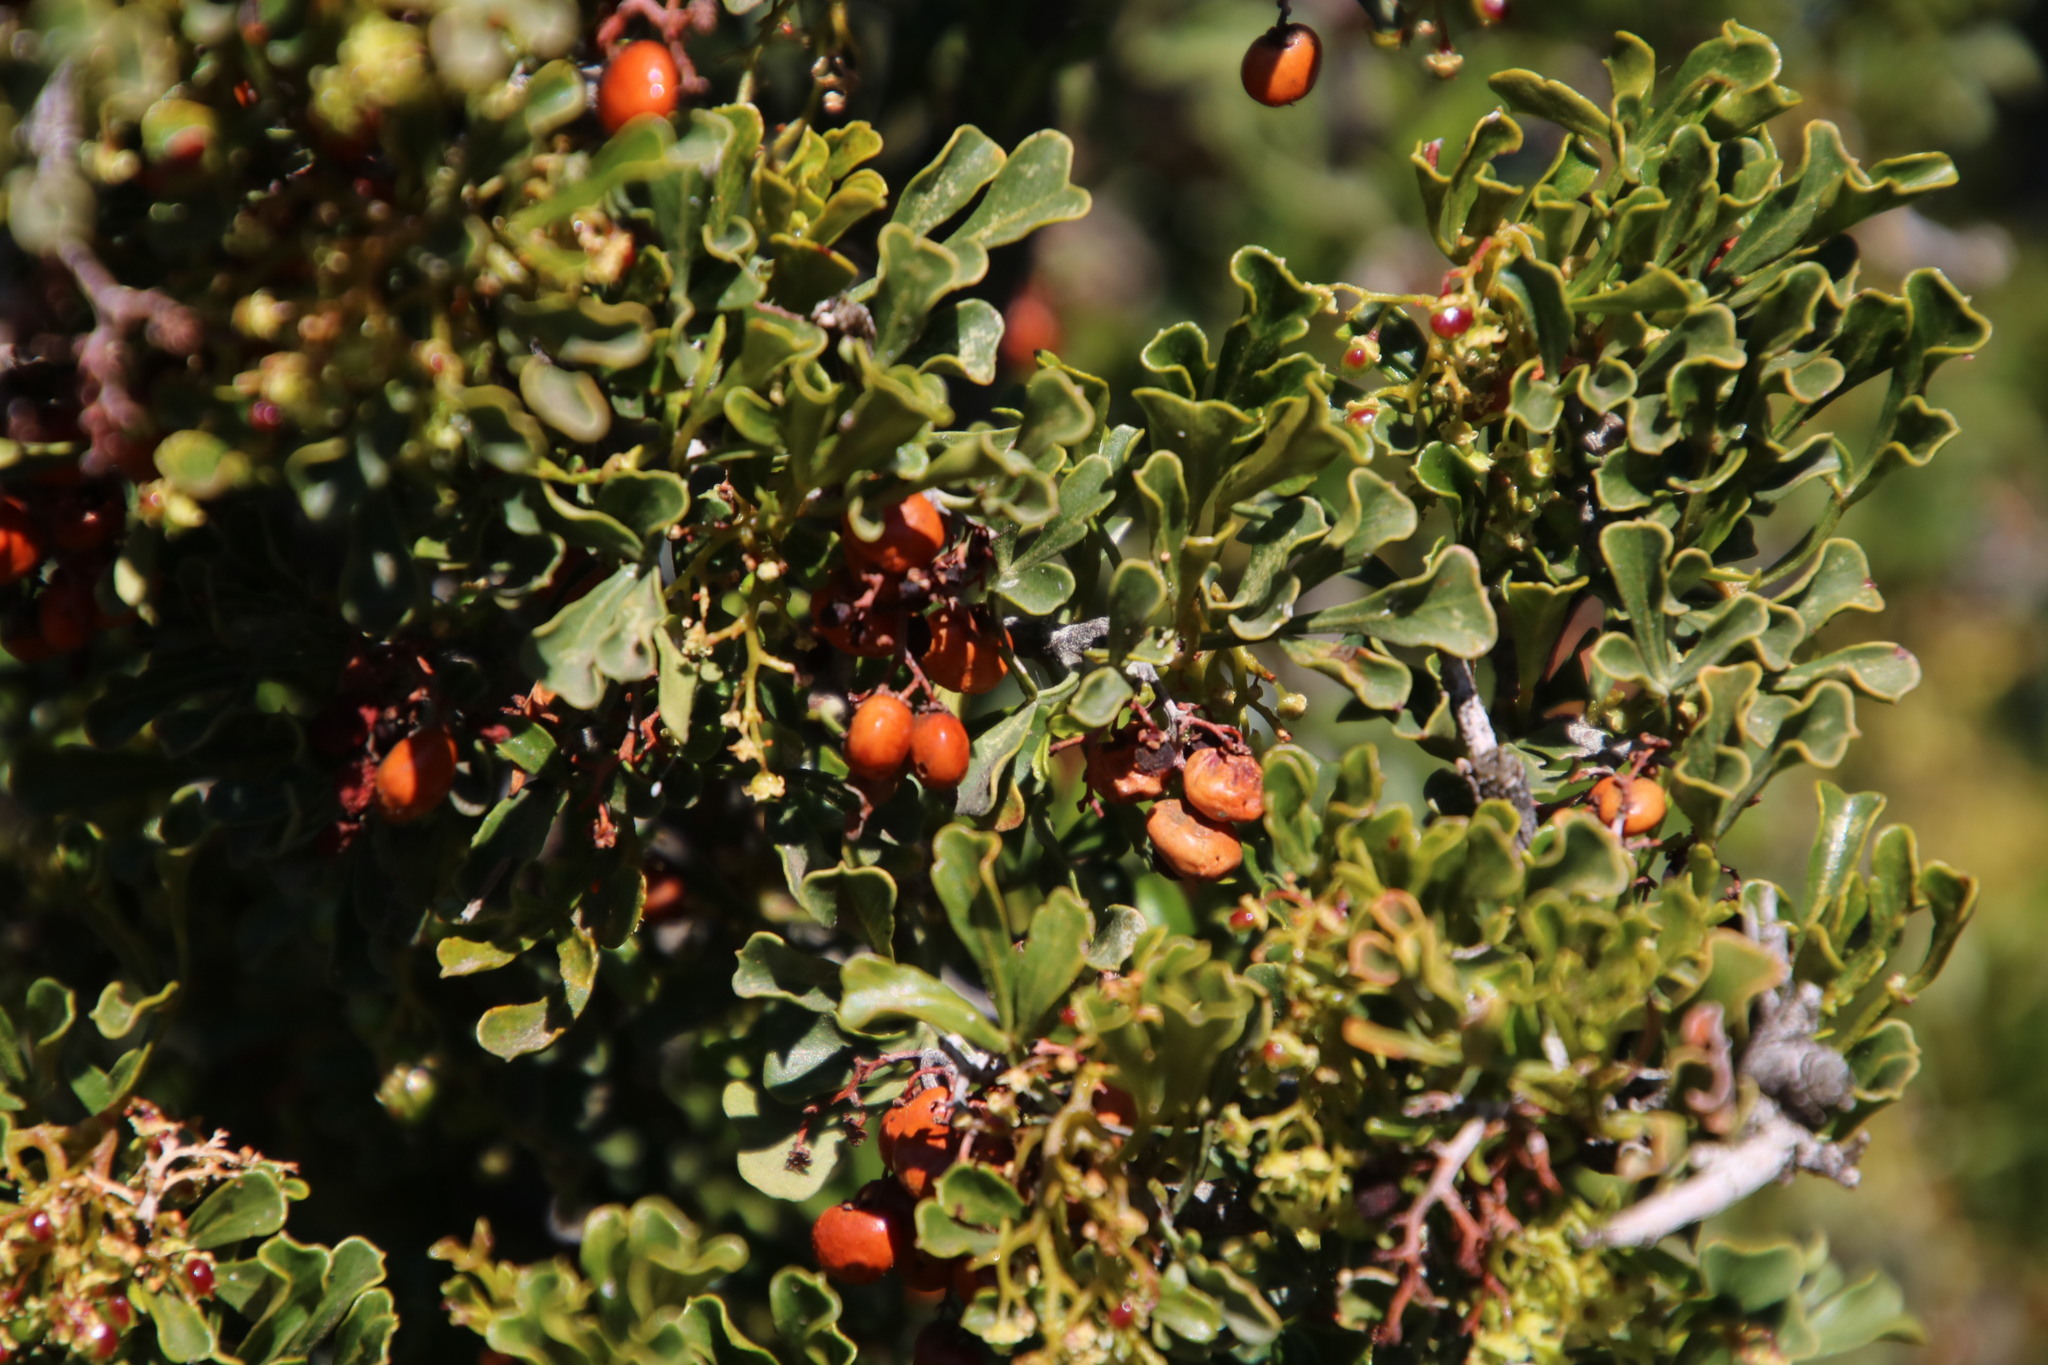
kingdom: Plantae
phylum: Tracheophyta
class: Magnoliopsida
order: Sapindales
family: Anacardiaceae
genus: Searsia
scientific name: Searsia burchellii
